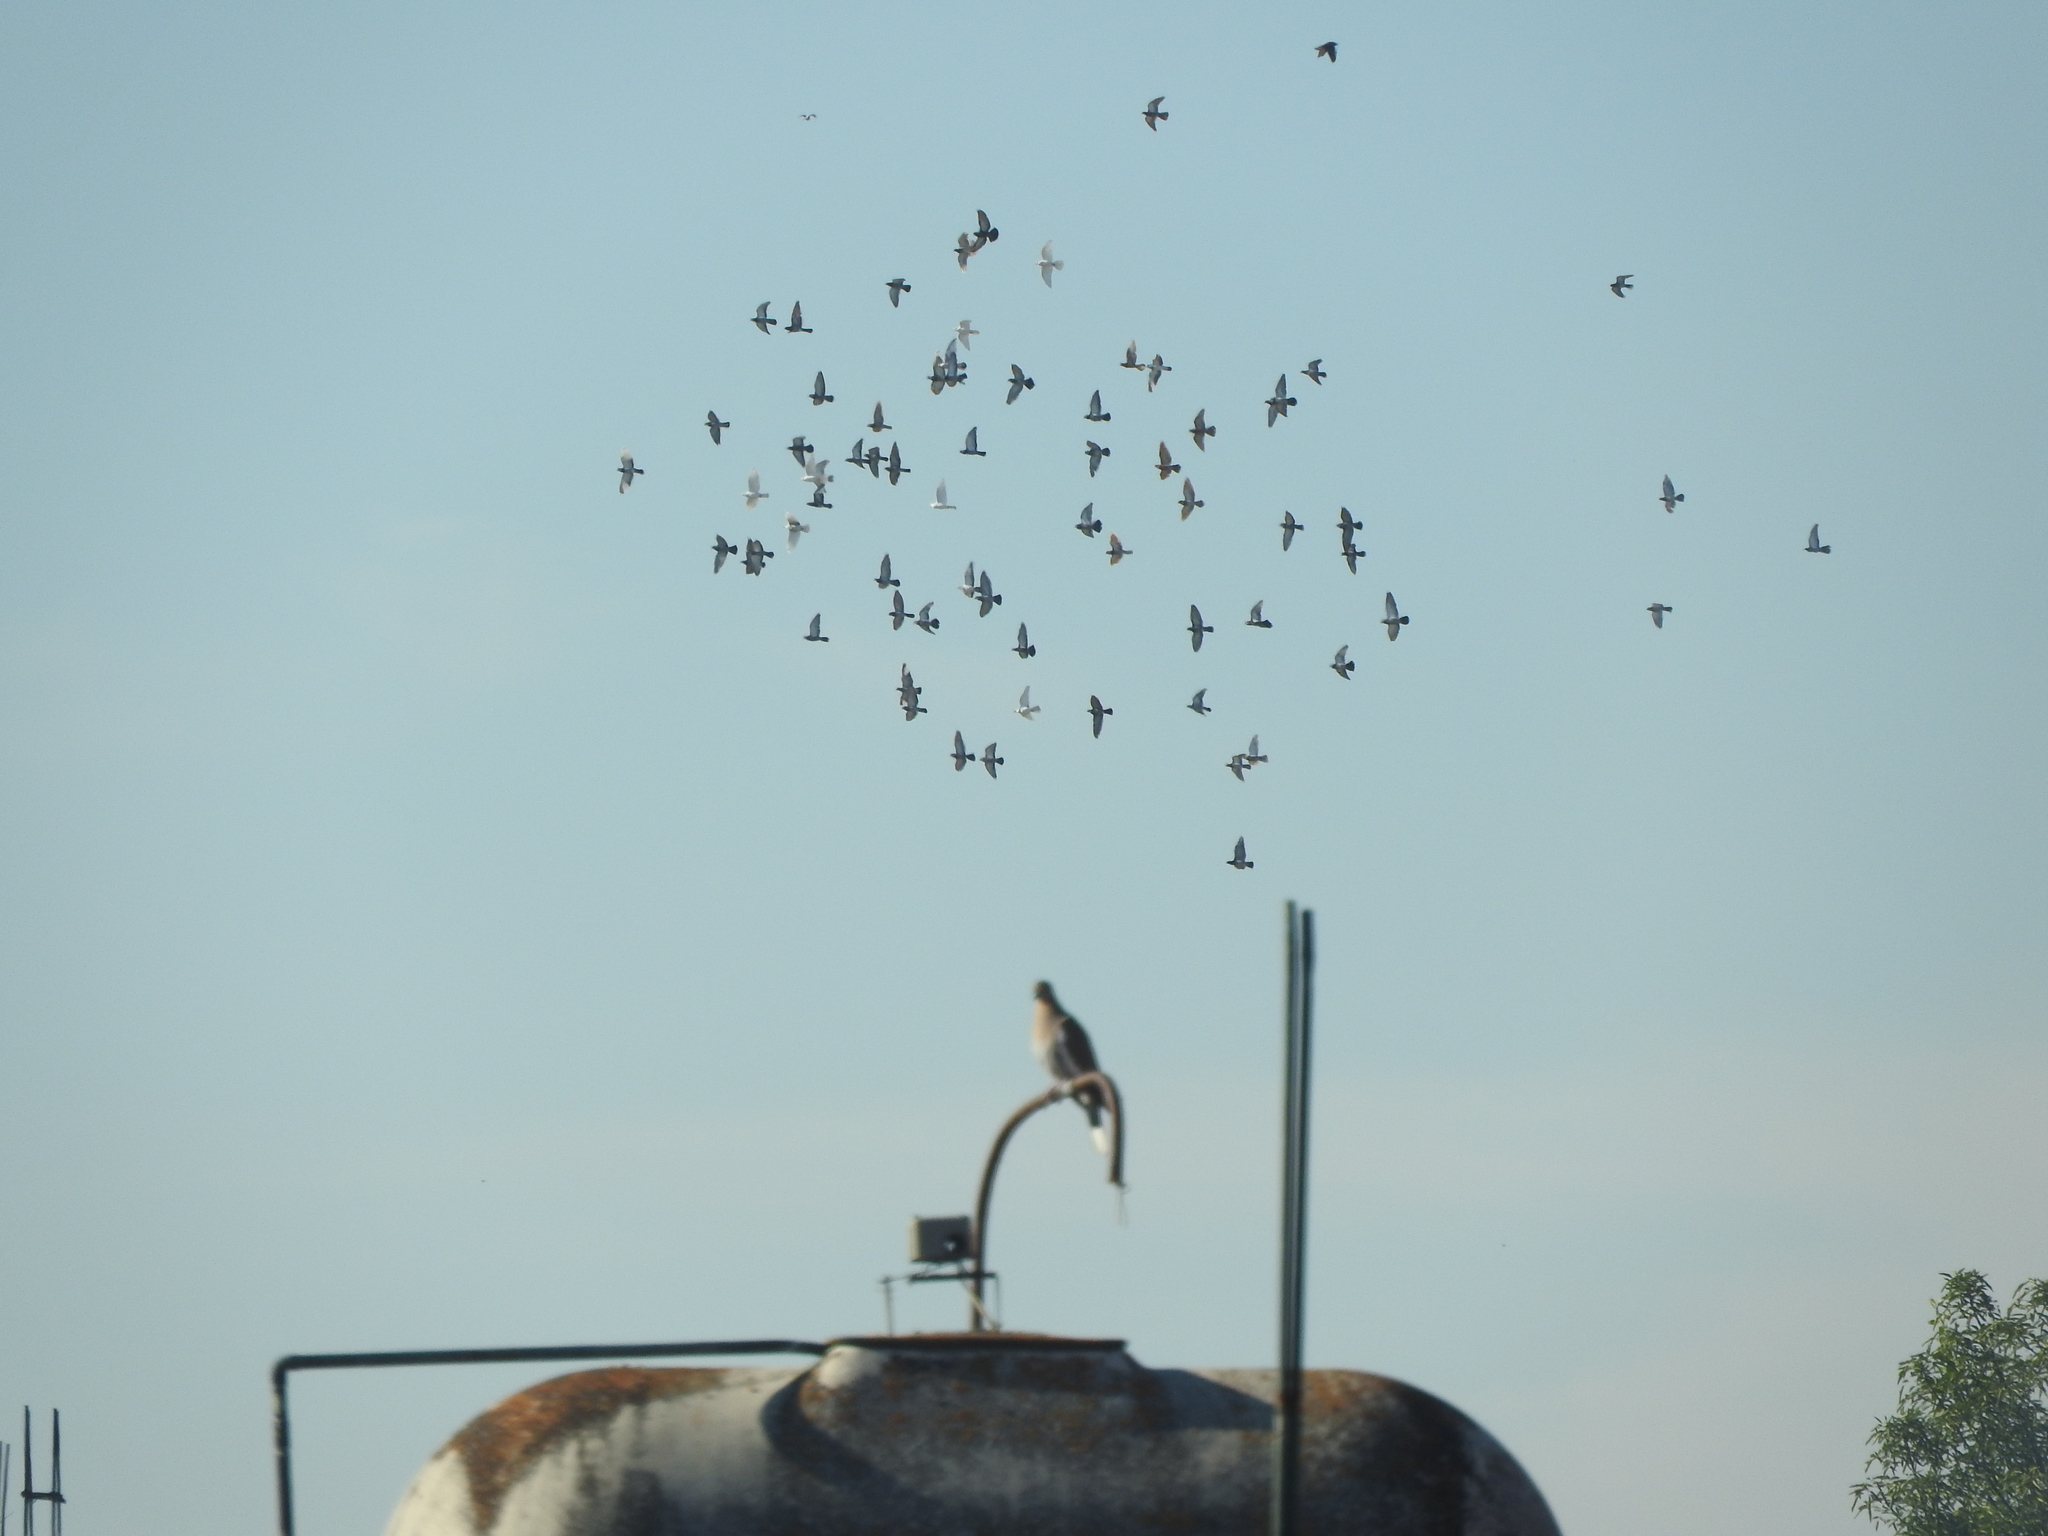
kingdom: Animalia
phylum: Chordata
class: Aves
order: Columbiformes
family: Columbidae
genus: Columba
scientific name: Columba livia
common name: Rock pigeon
